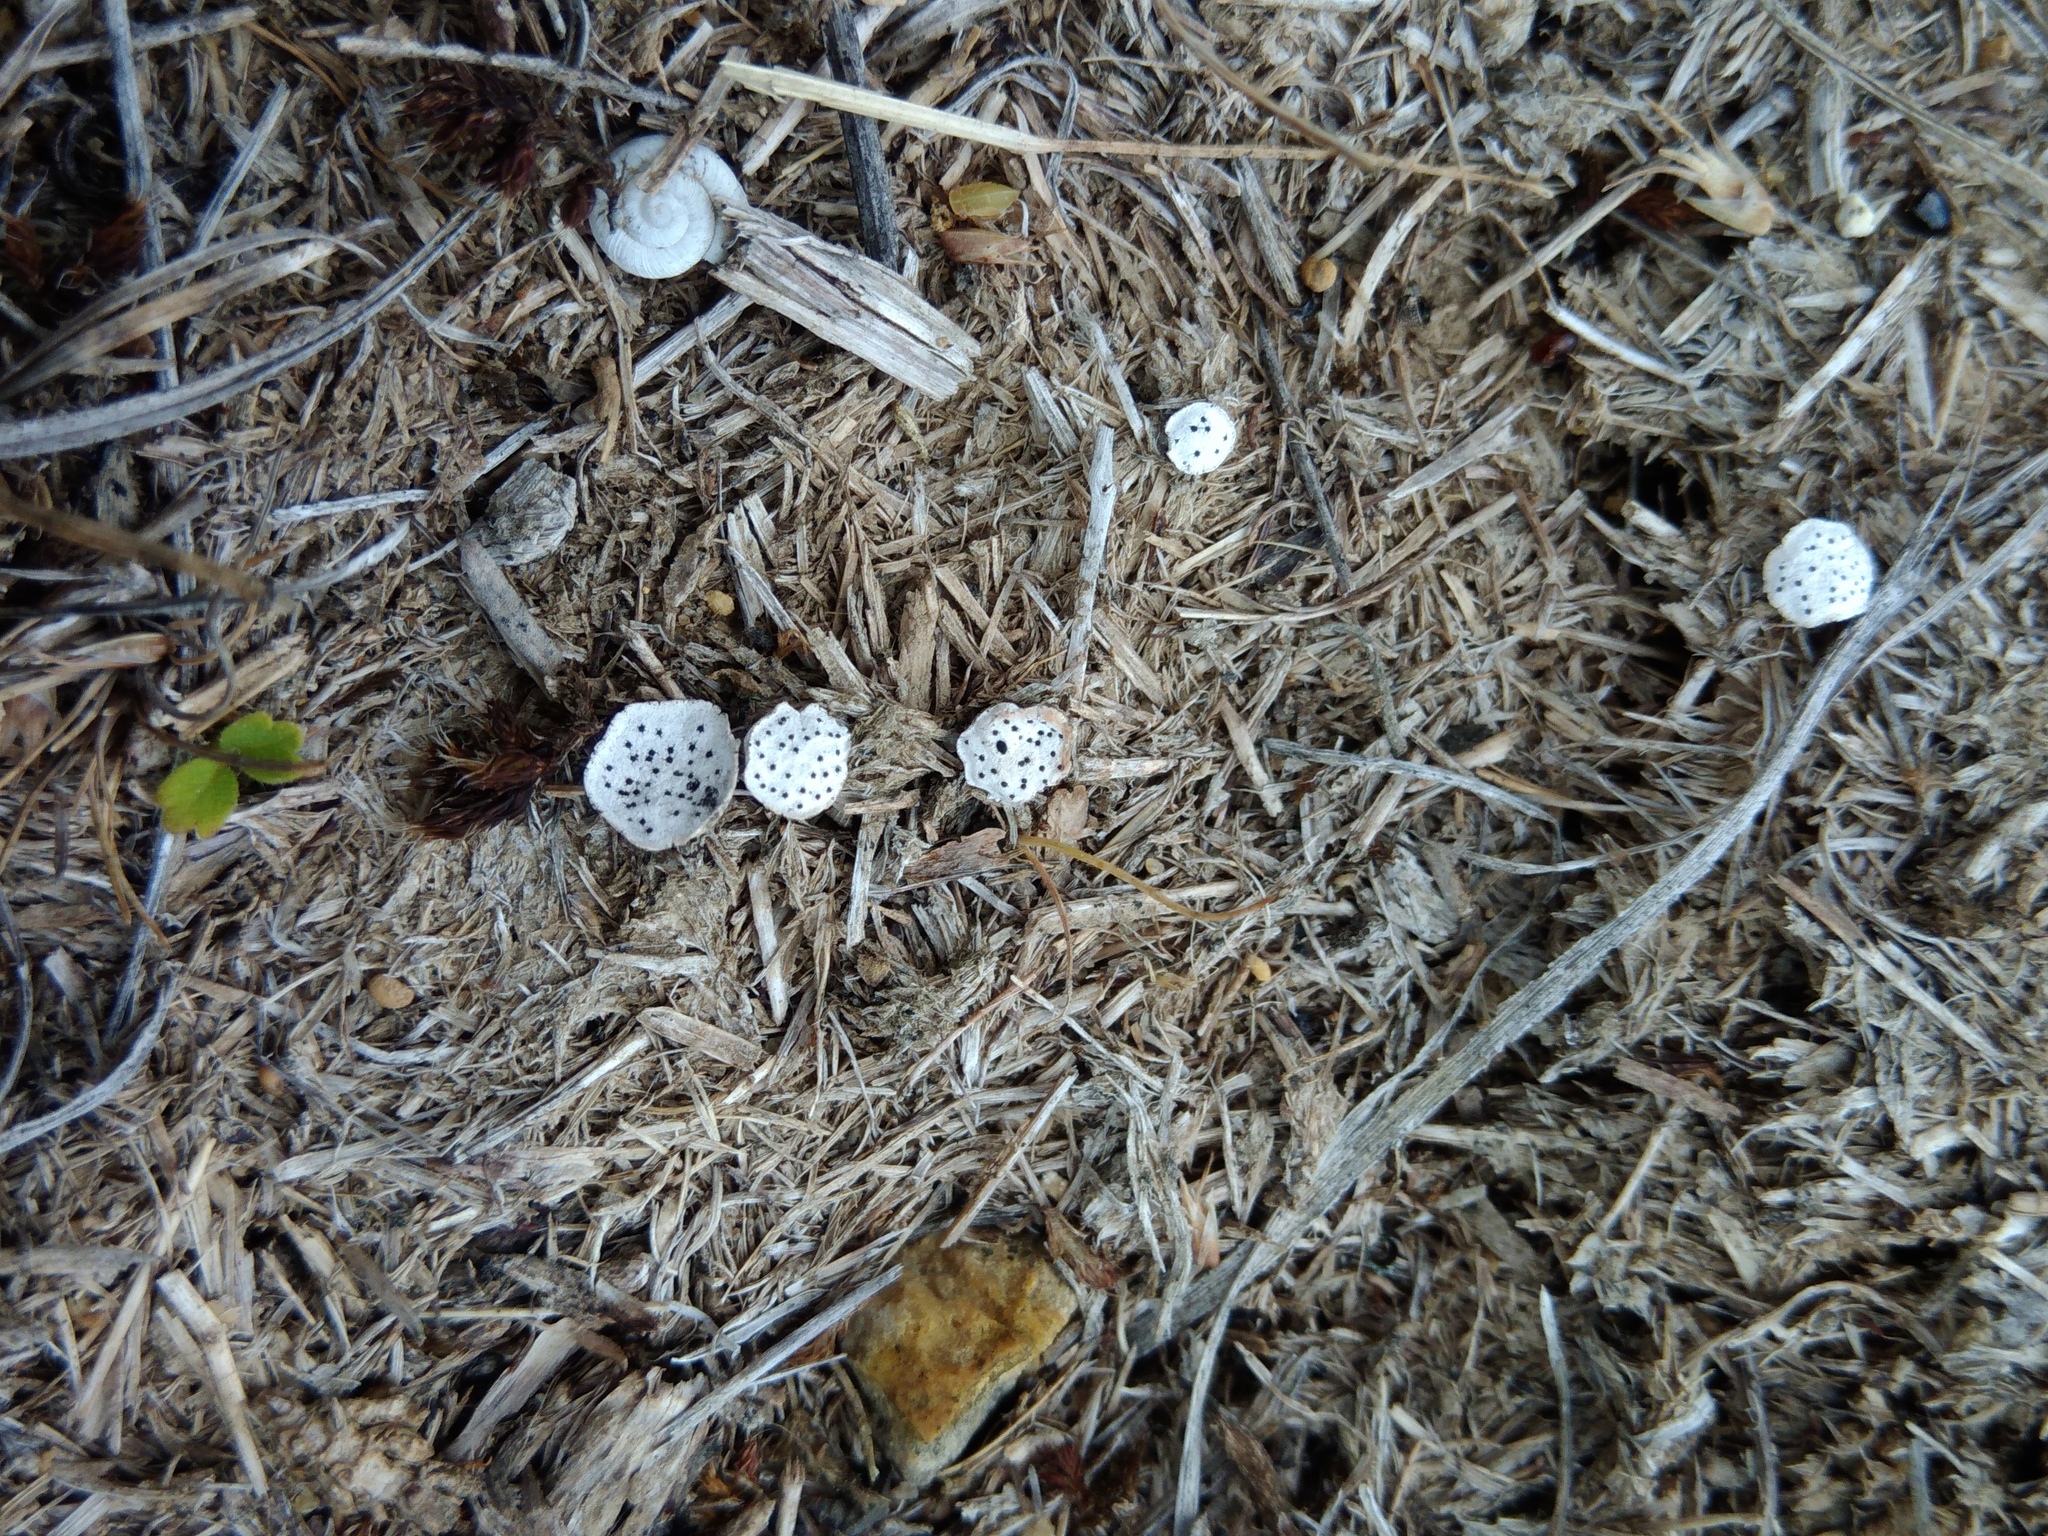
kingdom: Fungi
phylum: Ascomycota
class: Sordariomycetes
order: Xylariales
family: Xylariaceae
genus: Poronia
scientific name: Poronia punctata
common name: Nail fungus
